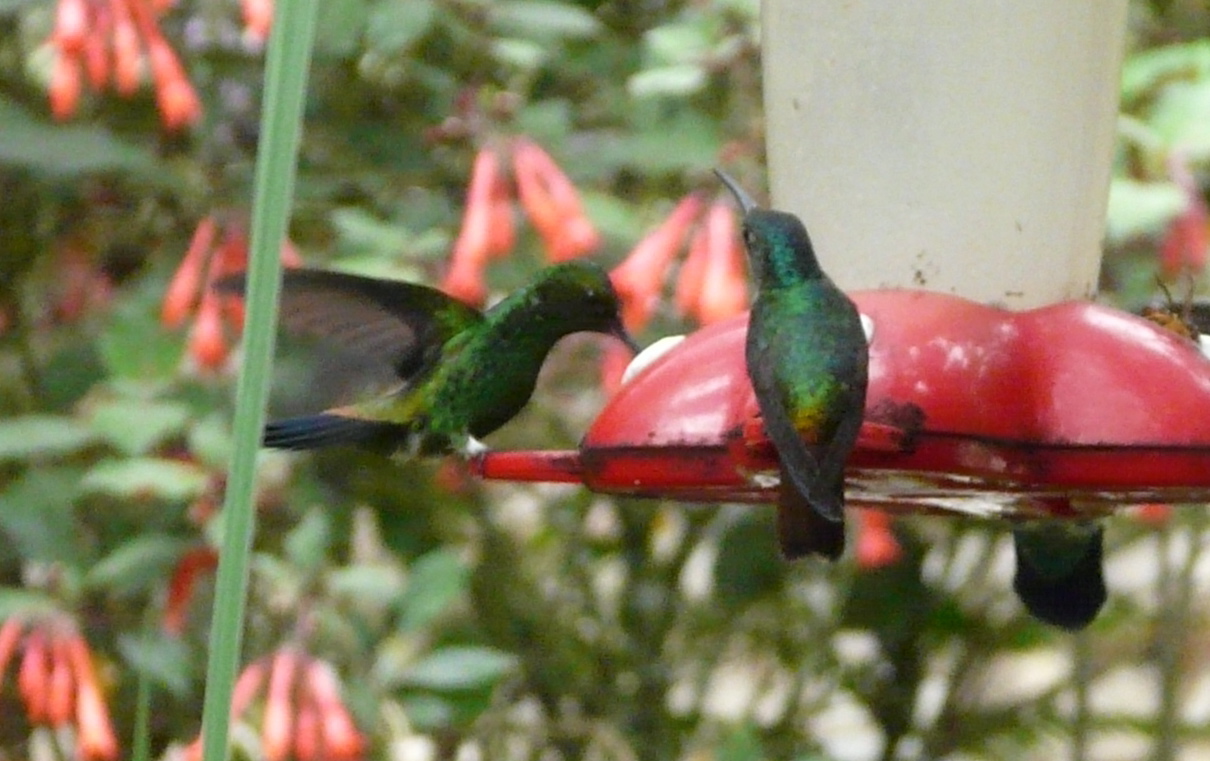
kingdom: Animalia
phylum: Chordata
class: Aves
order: Apodiformes
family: Trochilidae
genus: Saucerottia
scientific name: Saucerottia tobaci
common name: Copper-rumped hummingbird
